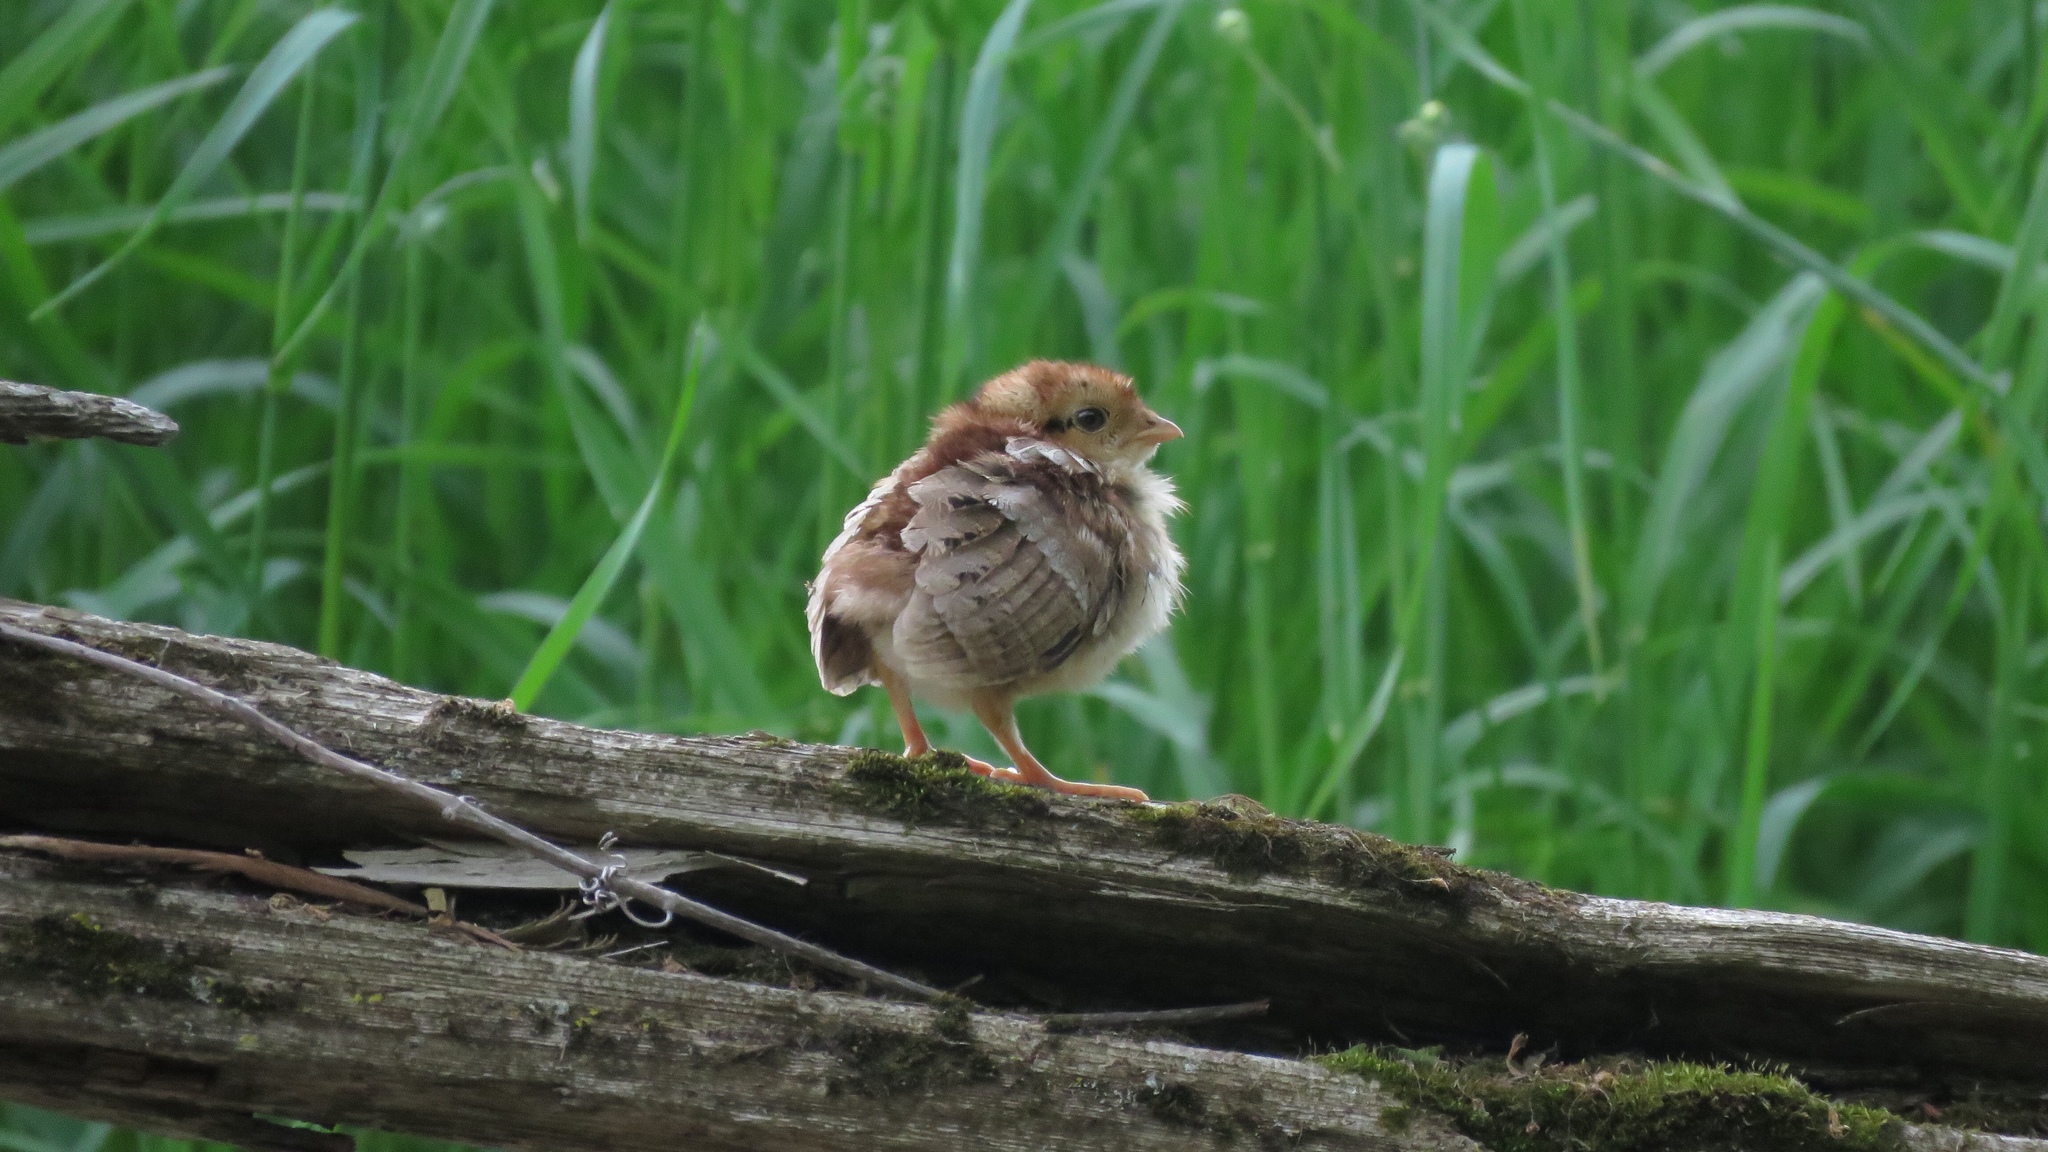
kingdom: Animalia
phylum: Chordata
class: Aves
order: Galliformes
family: Phasianidae
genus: Bonasa
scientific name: Bonasa umbellus
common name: Ruffed grouse
